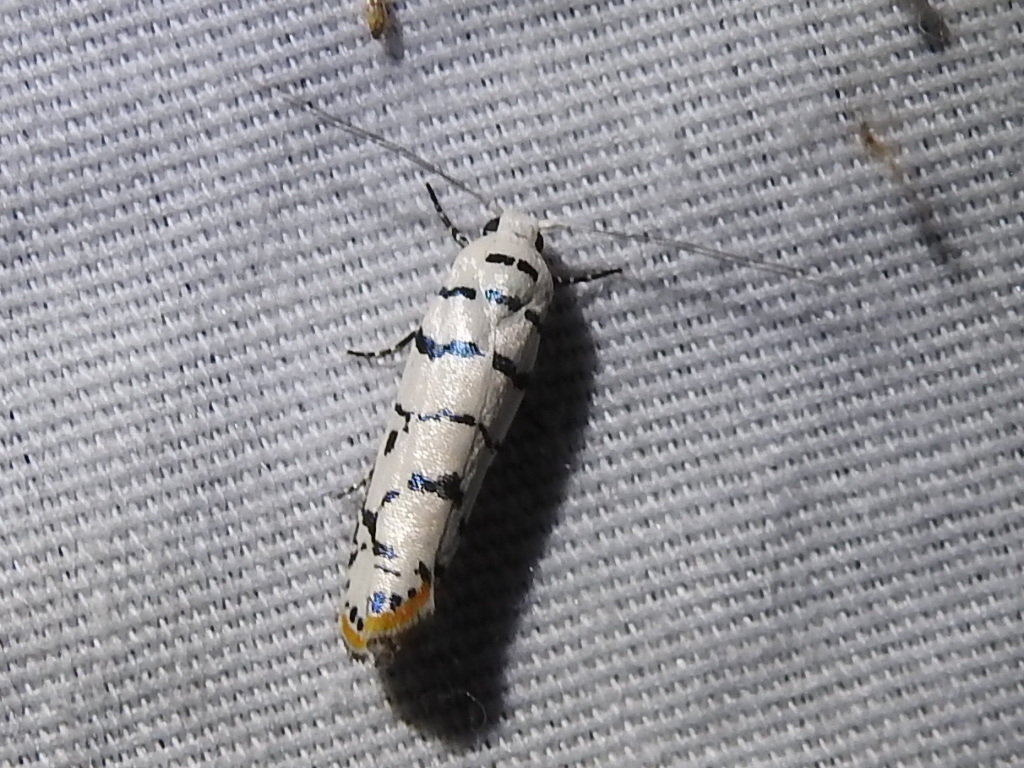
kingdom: Animalia
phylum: Arthropoda
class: Insecta
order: Lepidoptera
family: Ethmiidae
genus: Ethmia
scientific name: Ethmia delliella
